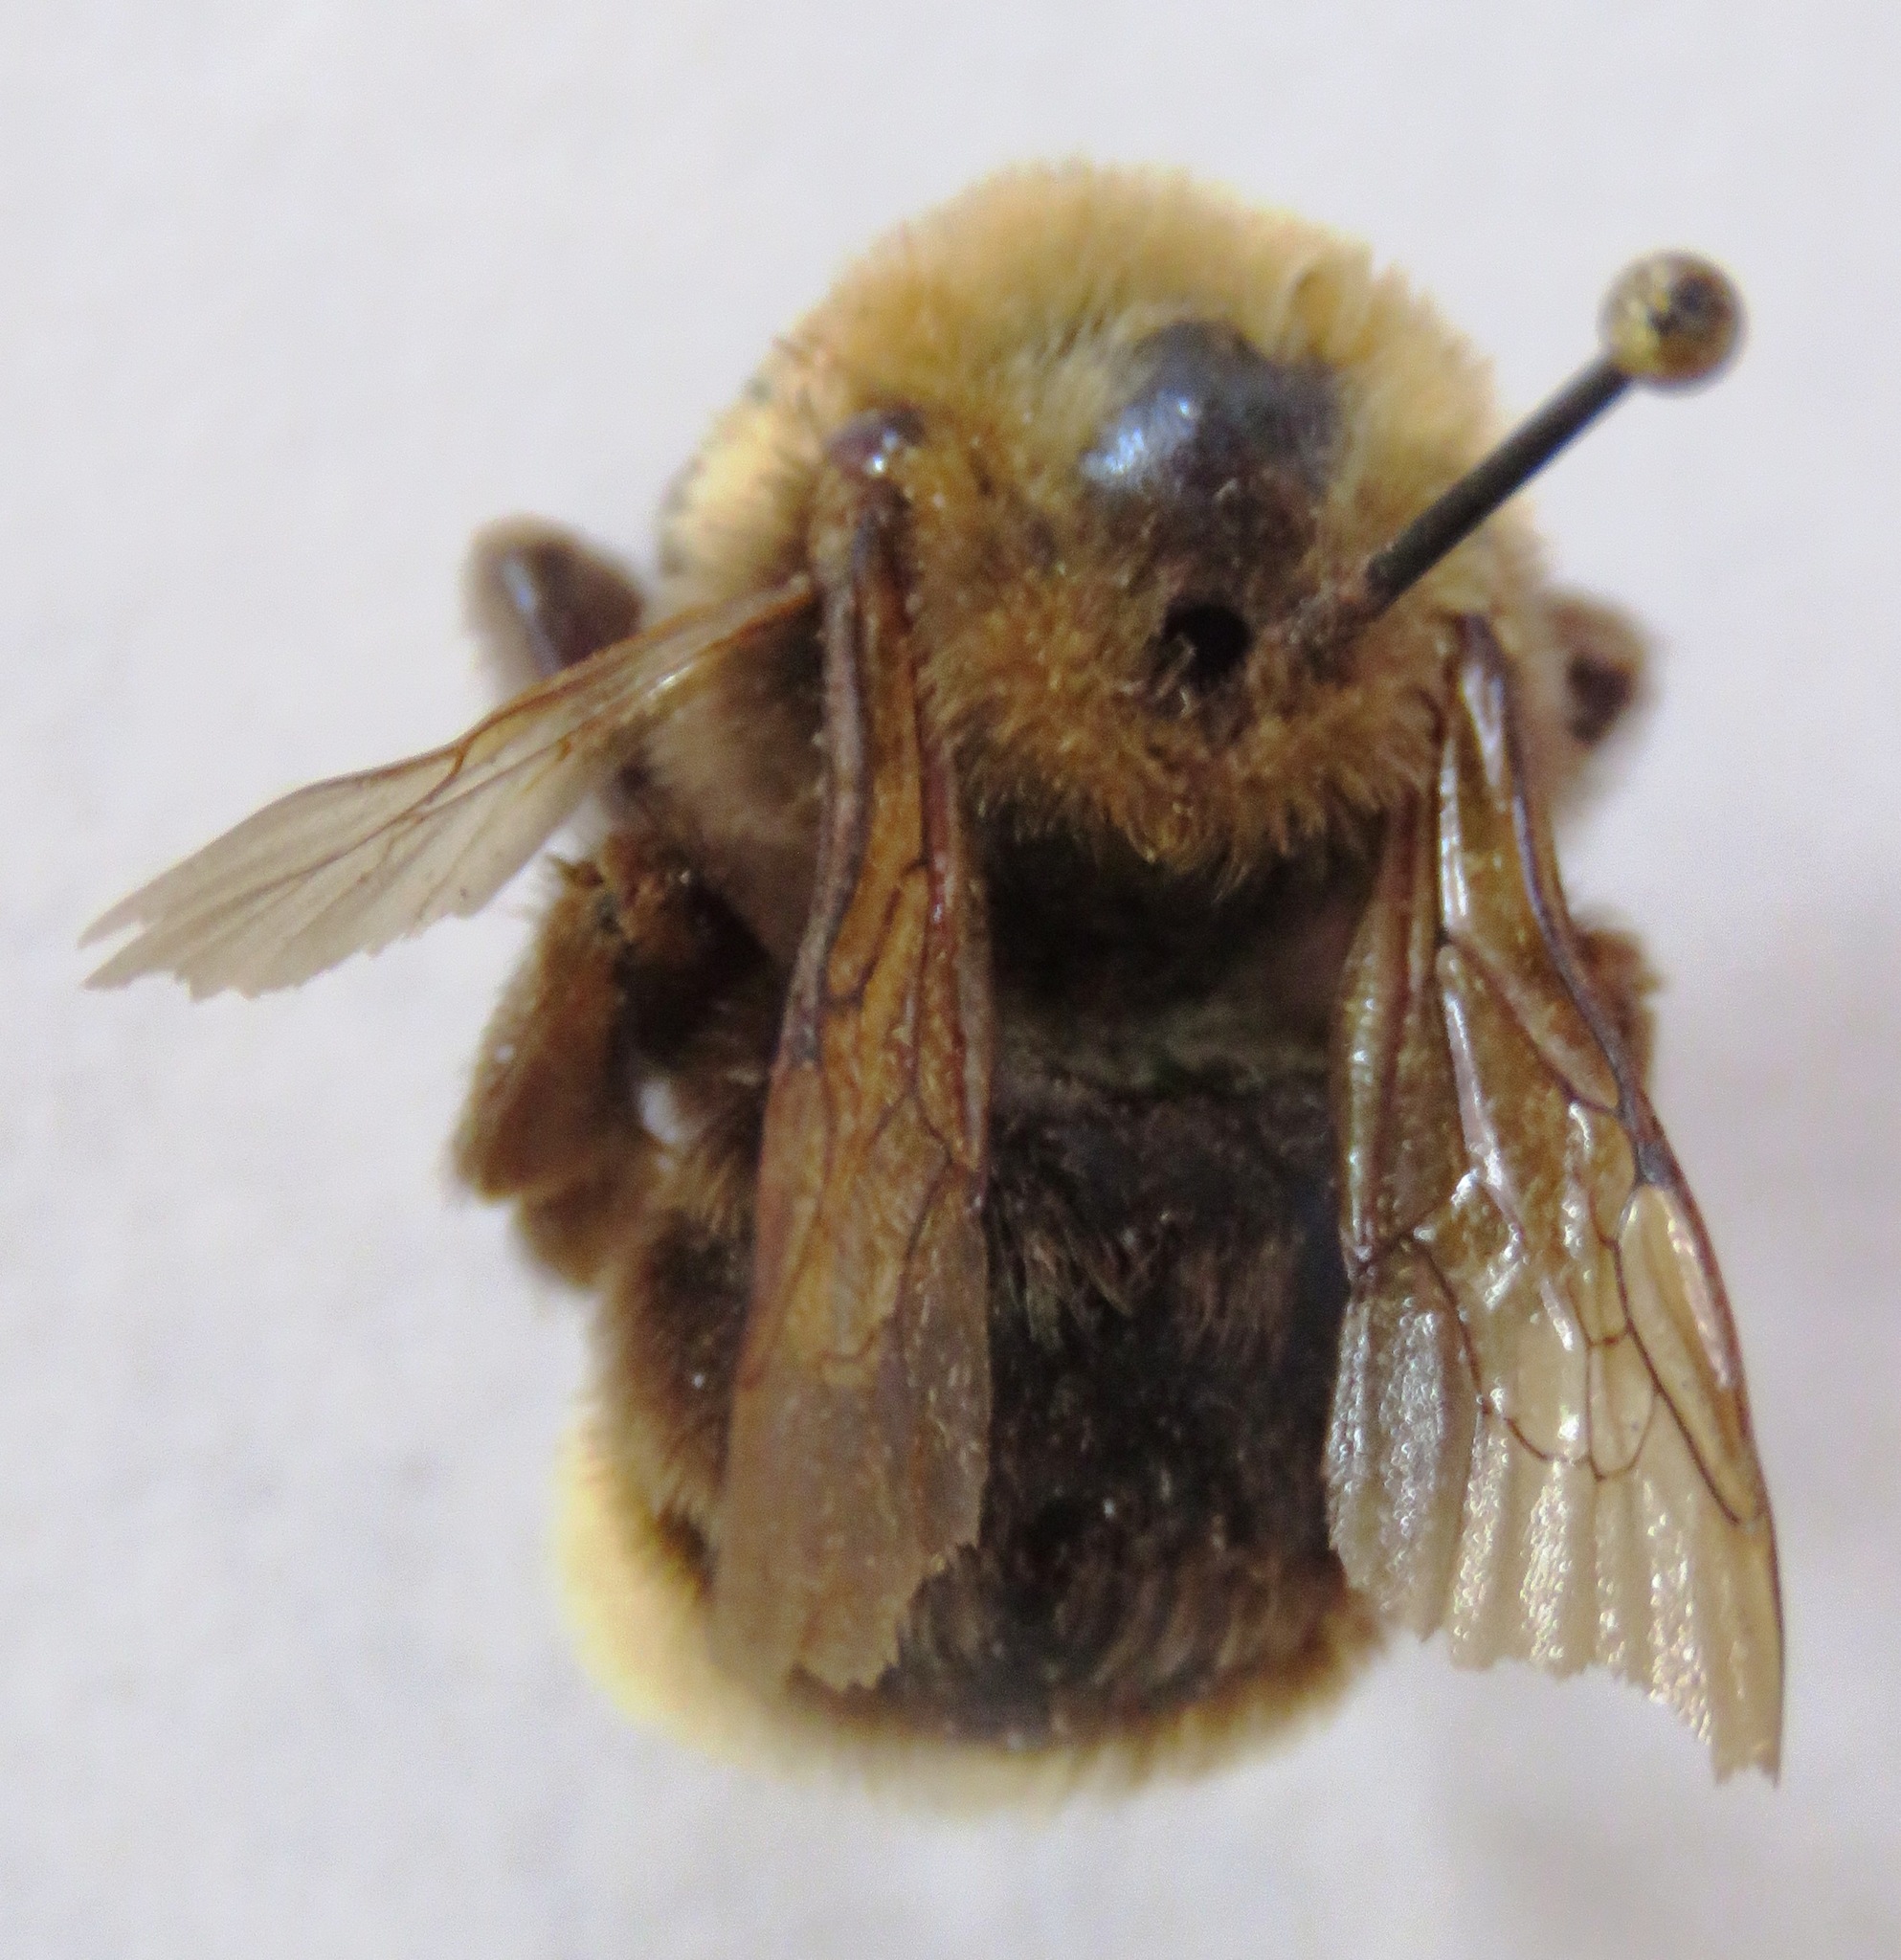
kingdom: Animalia
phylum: Arthropoda
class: Insecta
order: Hymenoptera
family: Apidae
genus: Bombus
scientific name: Bombus ashtoni
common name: Ashton's cuckoo bumble bee
